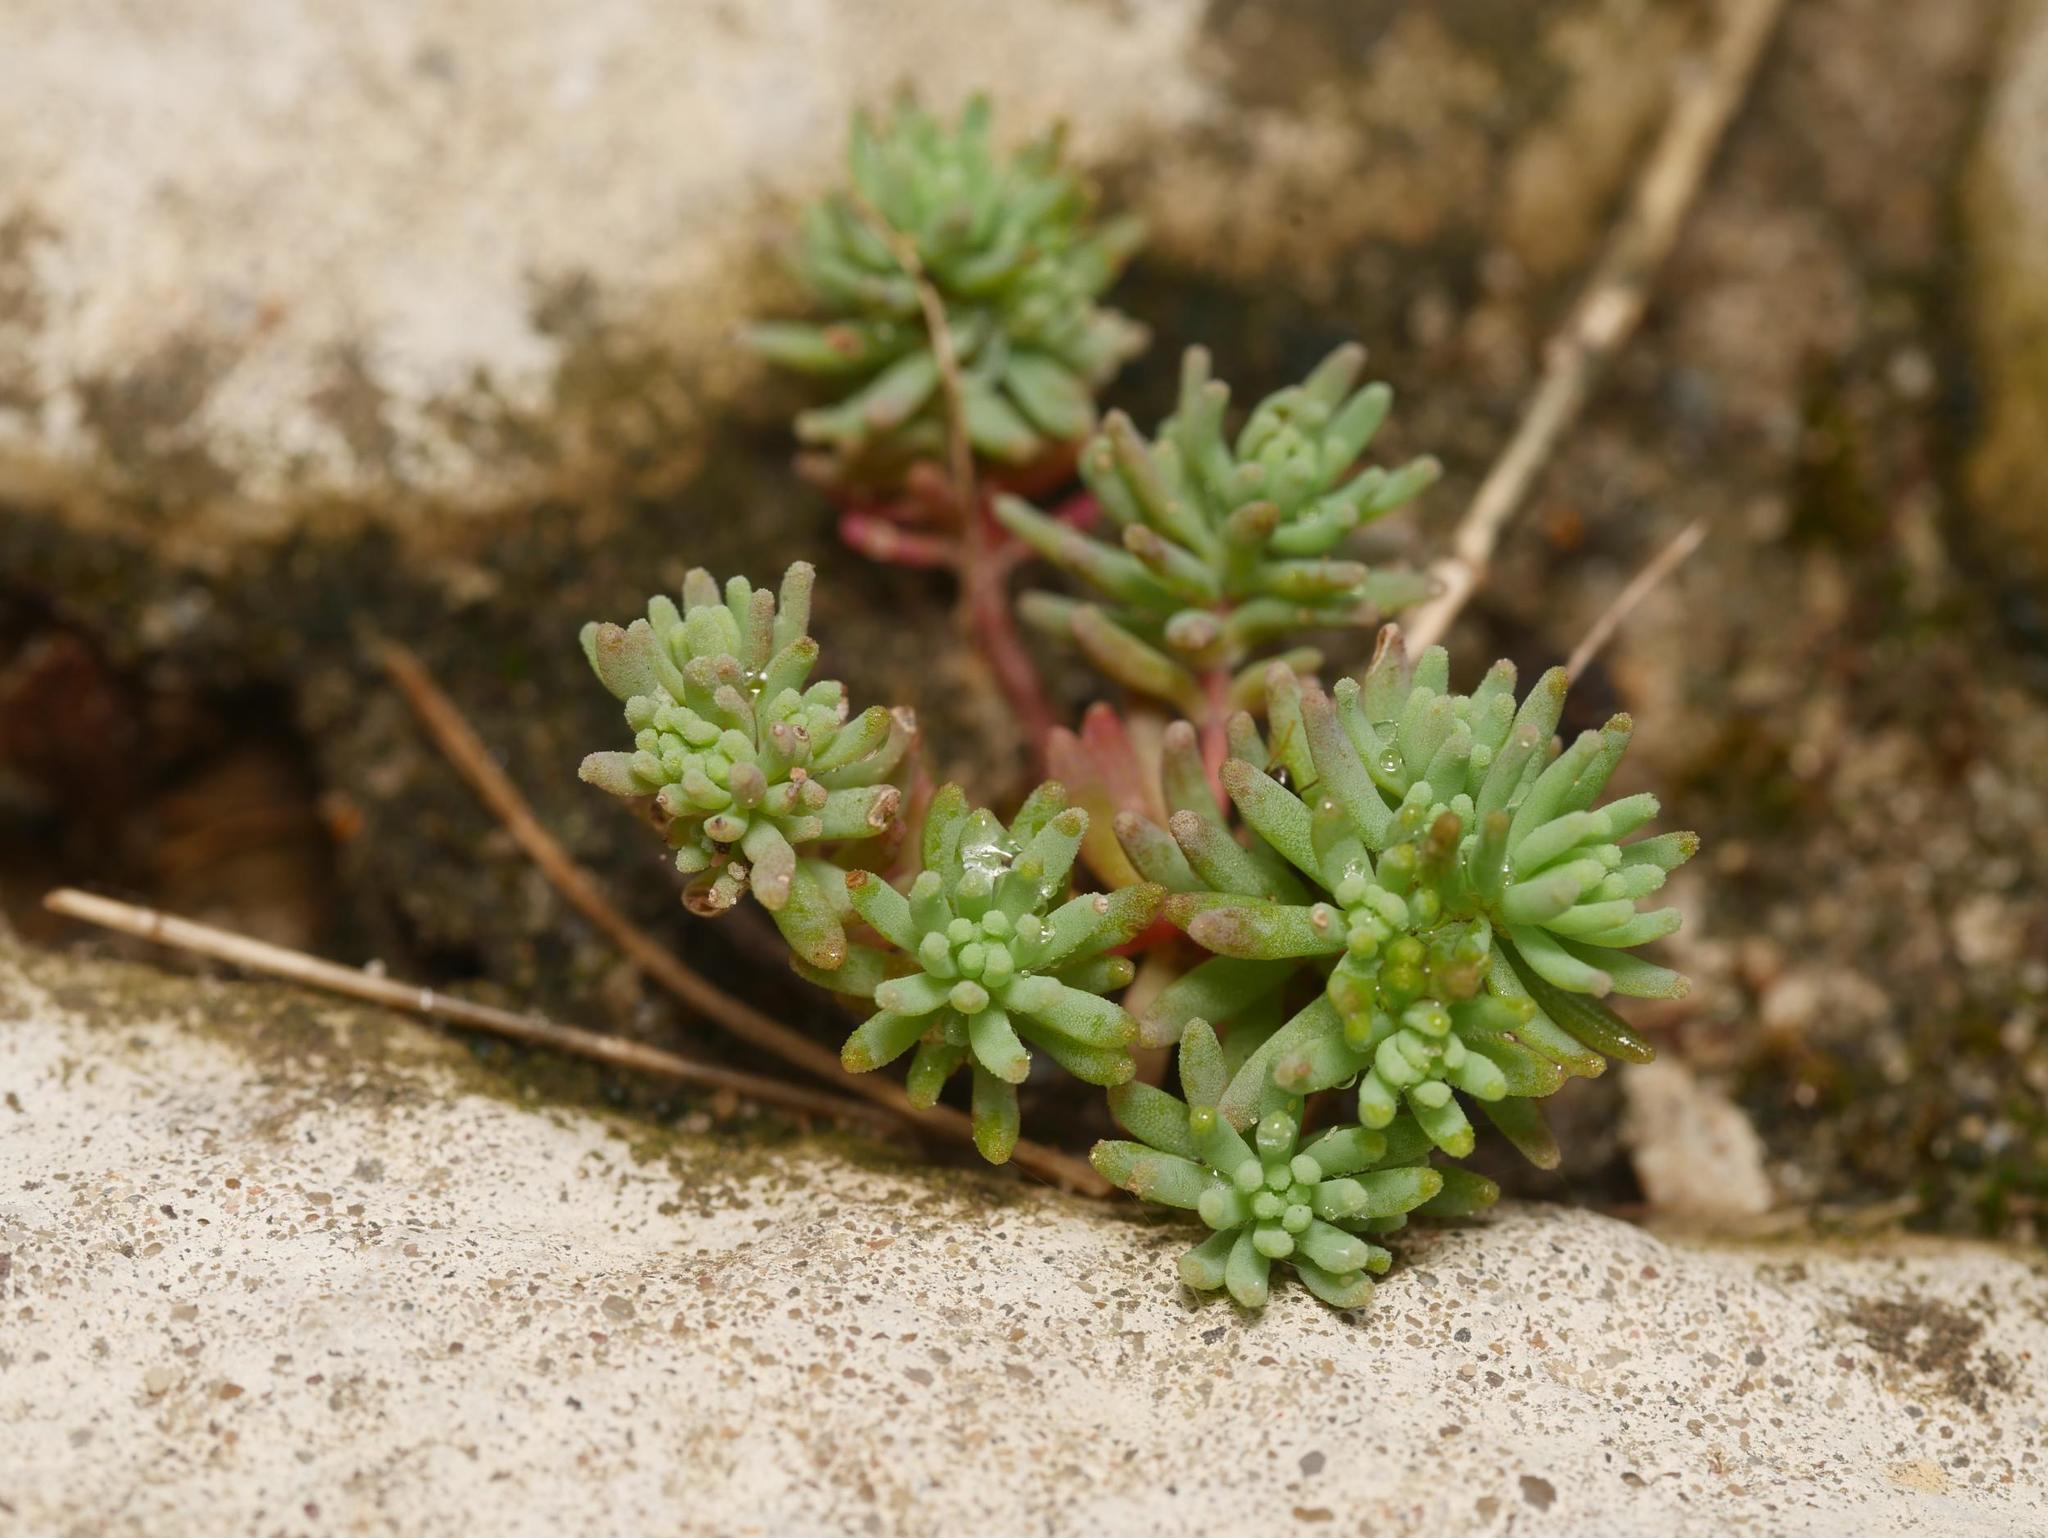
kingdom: Plantae
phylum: Tracheophyta
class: Magnoliopsida
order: Saxifragales
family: Crassulaceae
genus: Sedum
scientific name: Sedum hispanicum
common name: Spanish stonecrop
